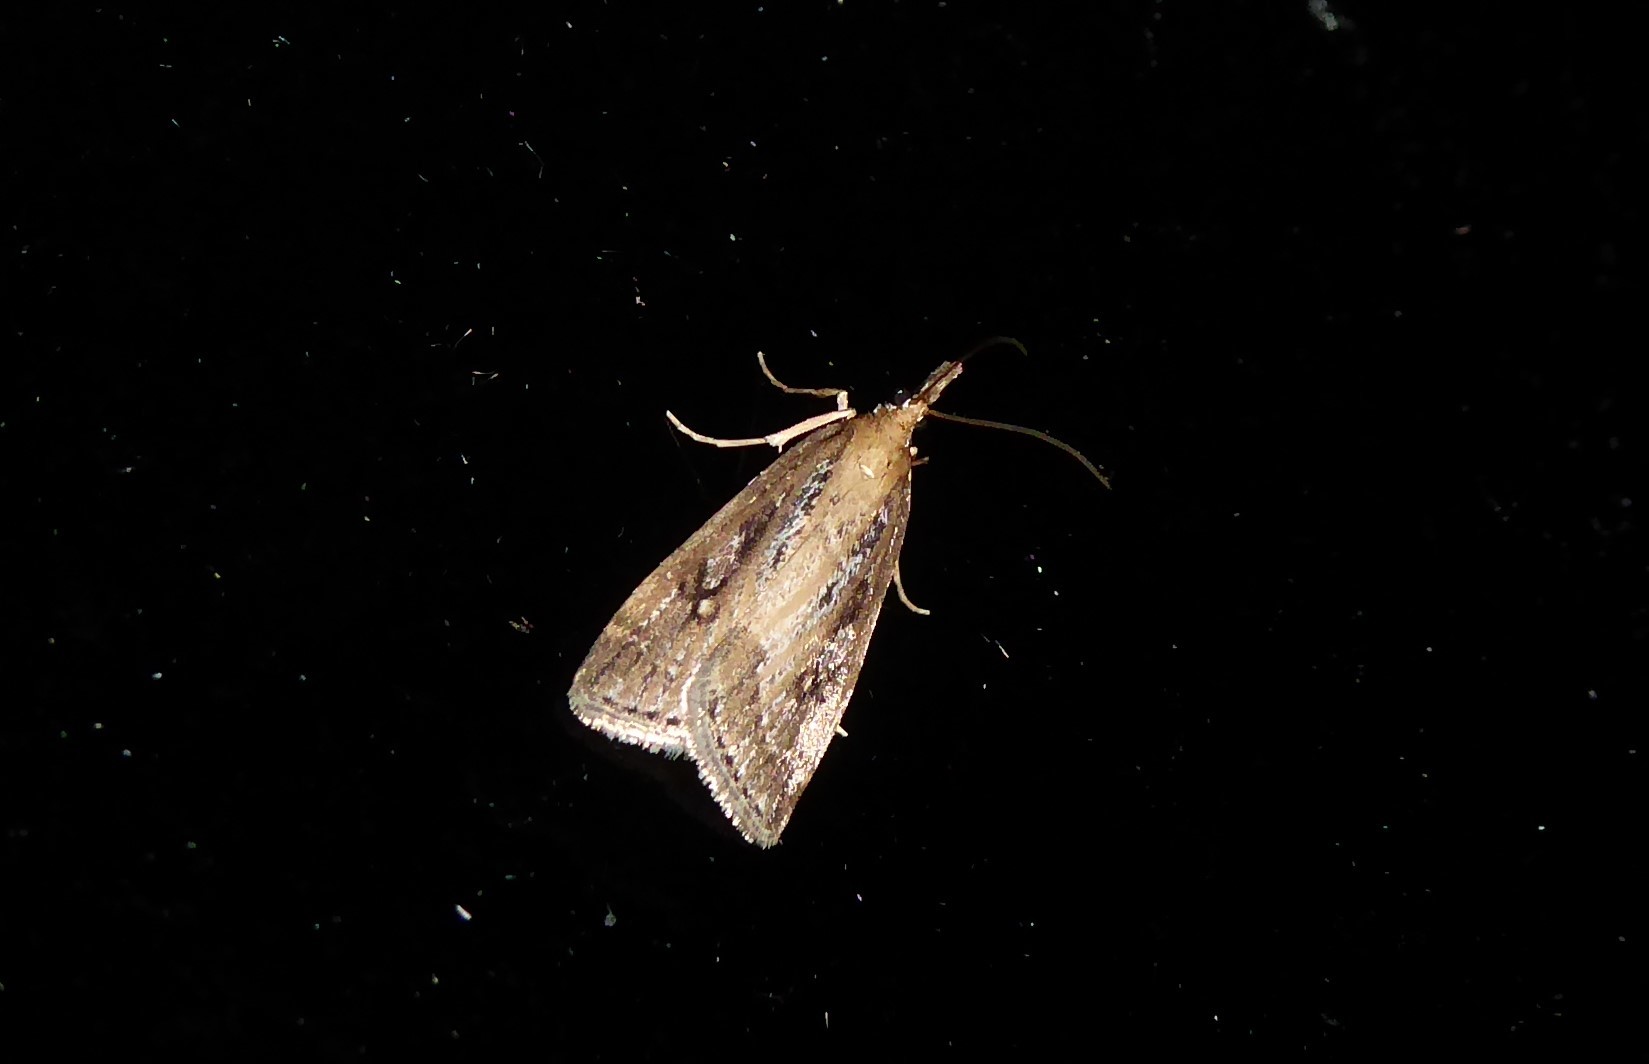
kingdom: Animalia
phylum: Arthropoda
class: Insecta
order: Lepidoptera
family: Crambidae
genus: Eudonia
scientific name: Eudonia octophora
